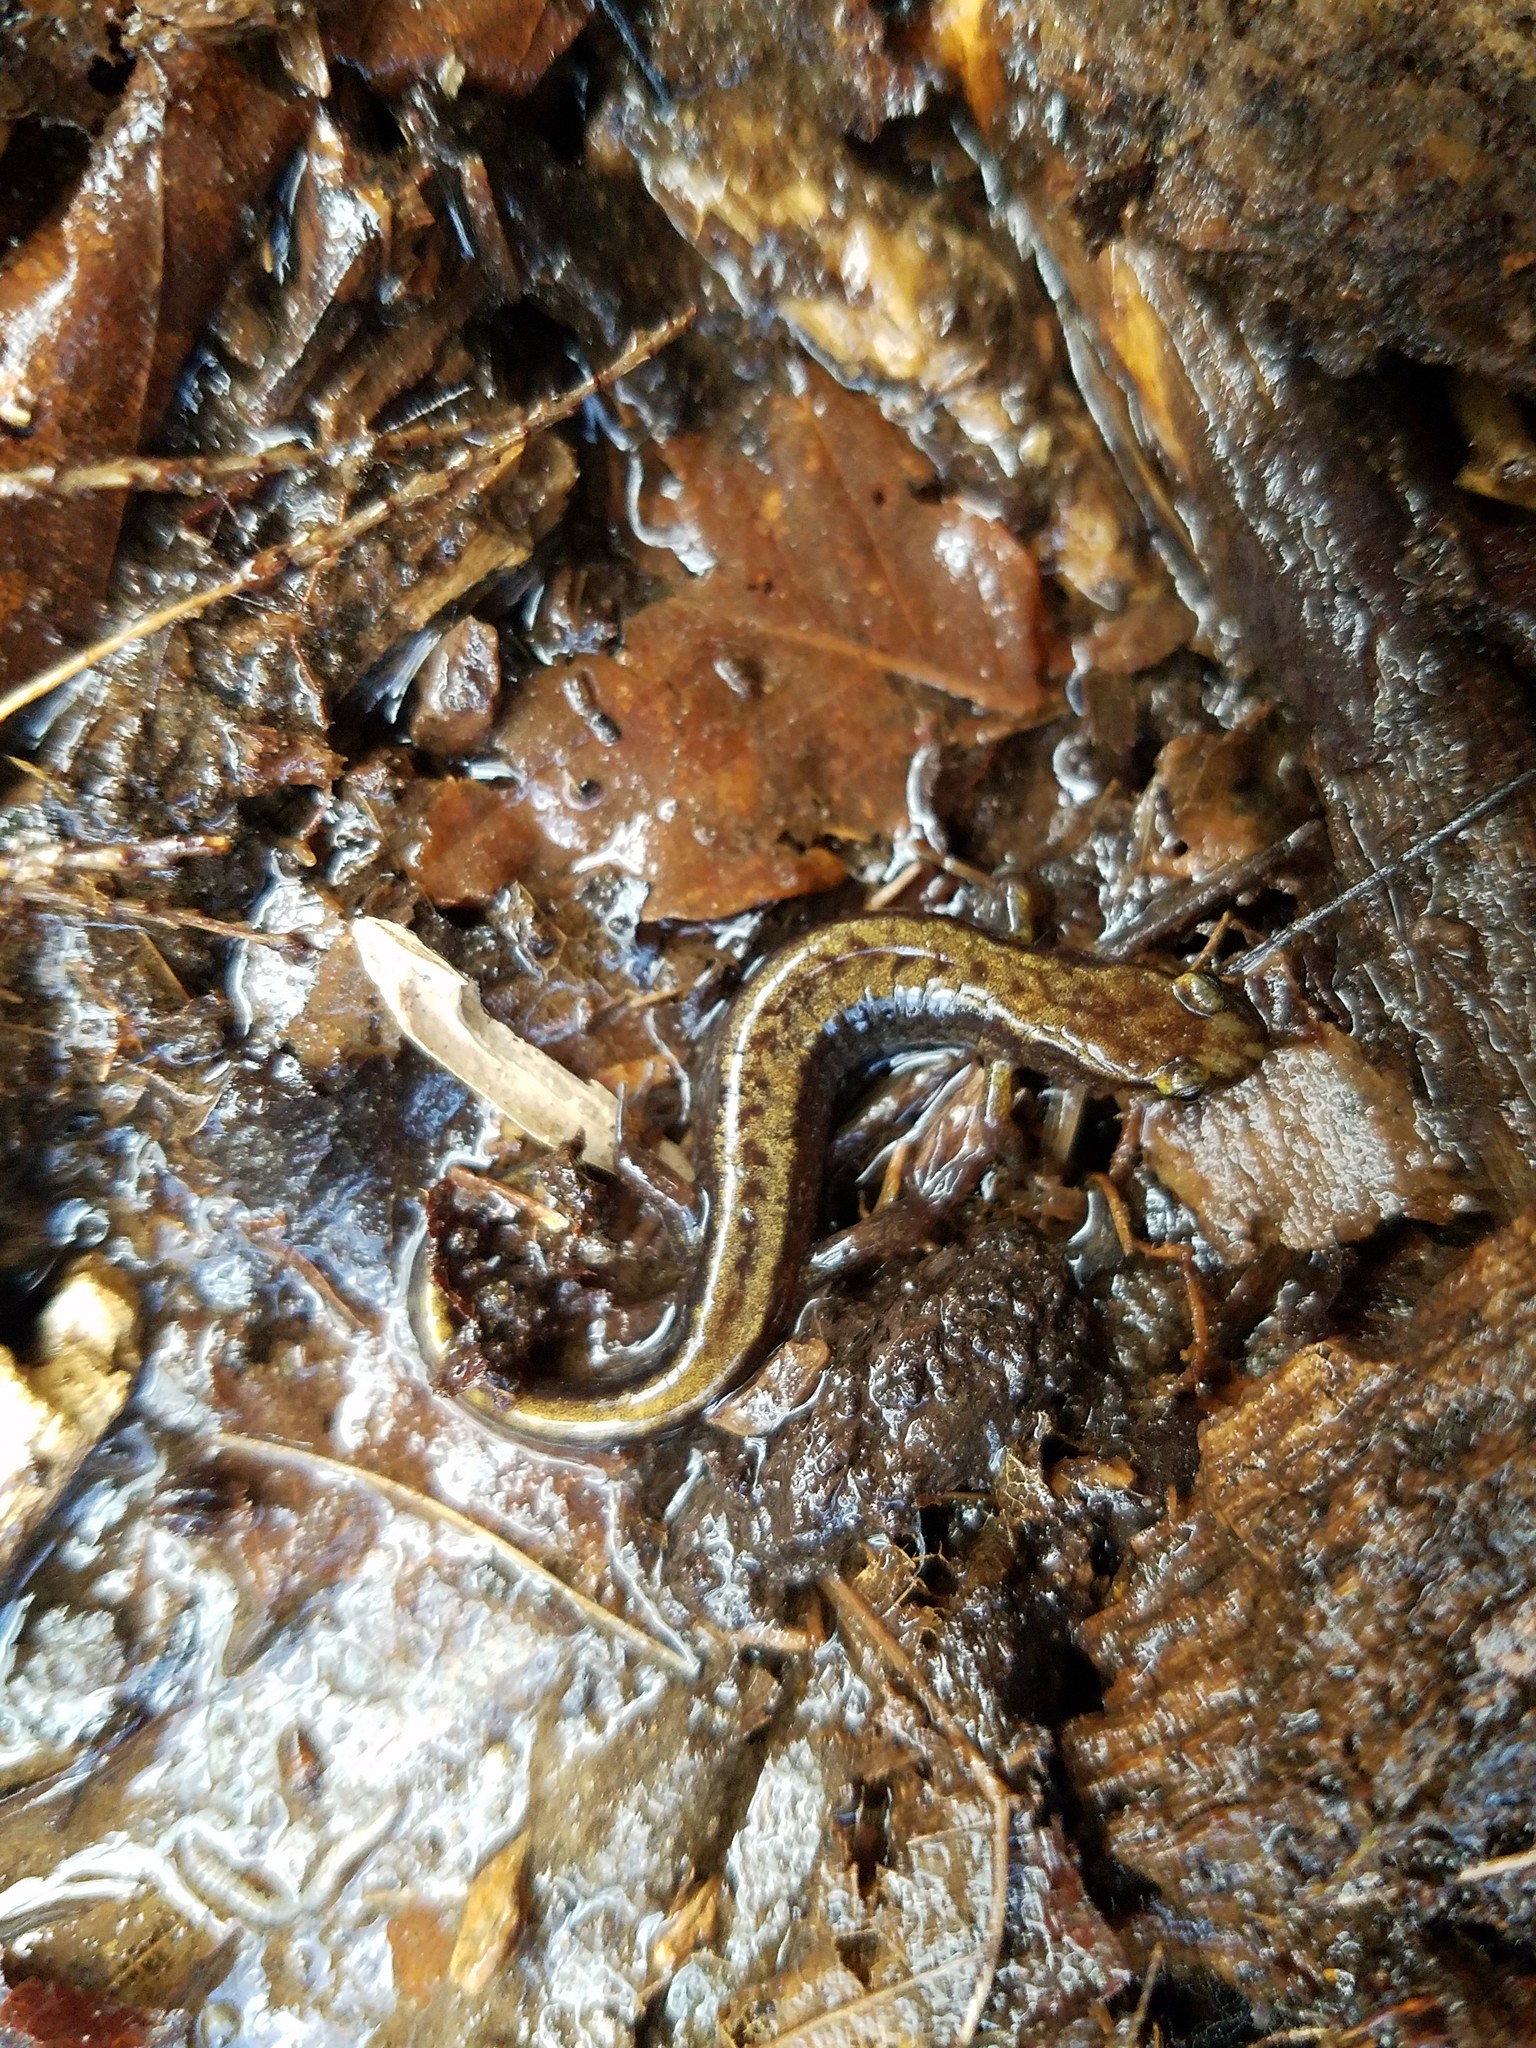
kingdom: Animalia
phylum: Chordata
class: Amphibia
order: Caudata
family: Plethodontidae
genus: Desmognathus
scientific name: Desmognathus ochrophaeus
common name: Allegheny mountain dusky salamander
